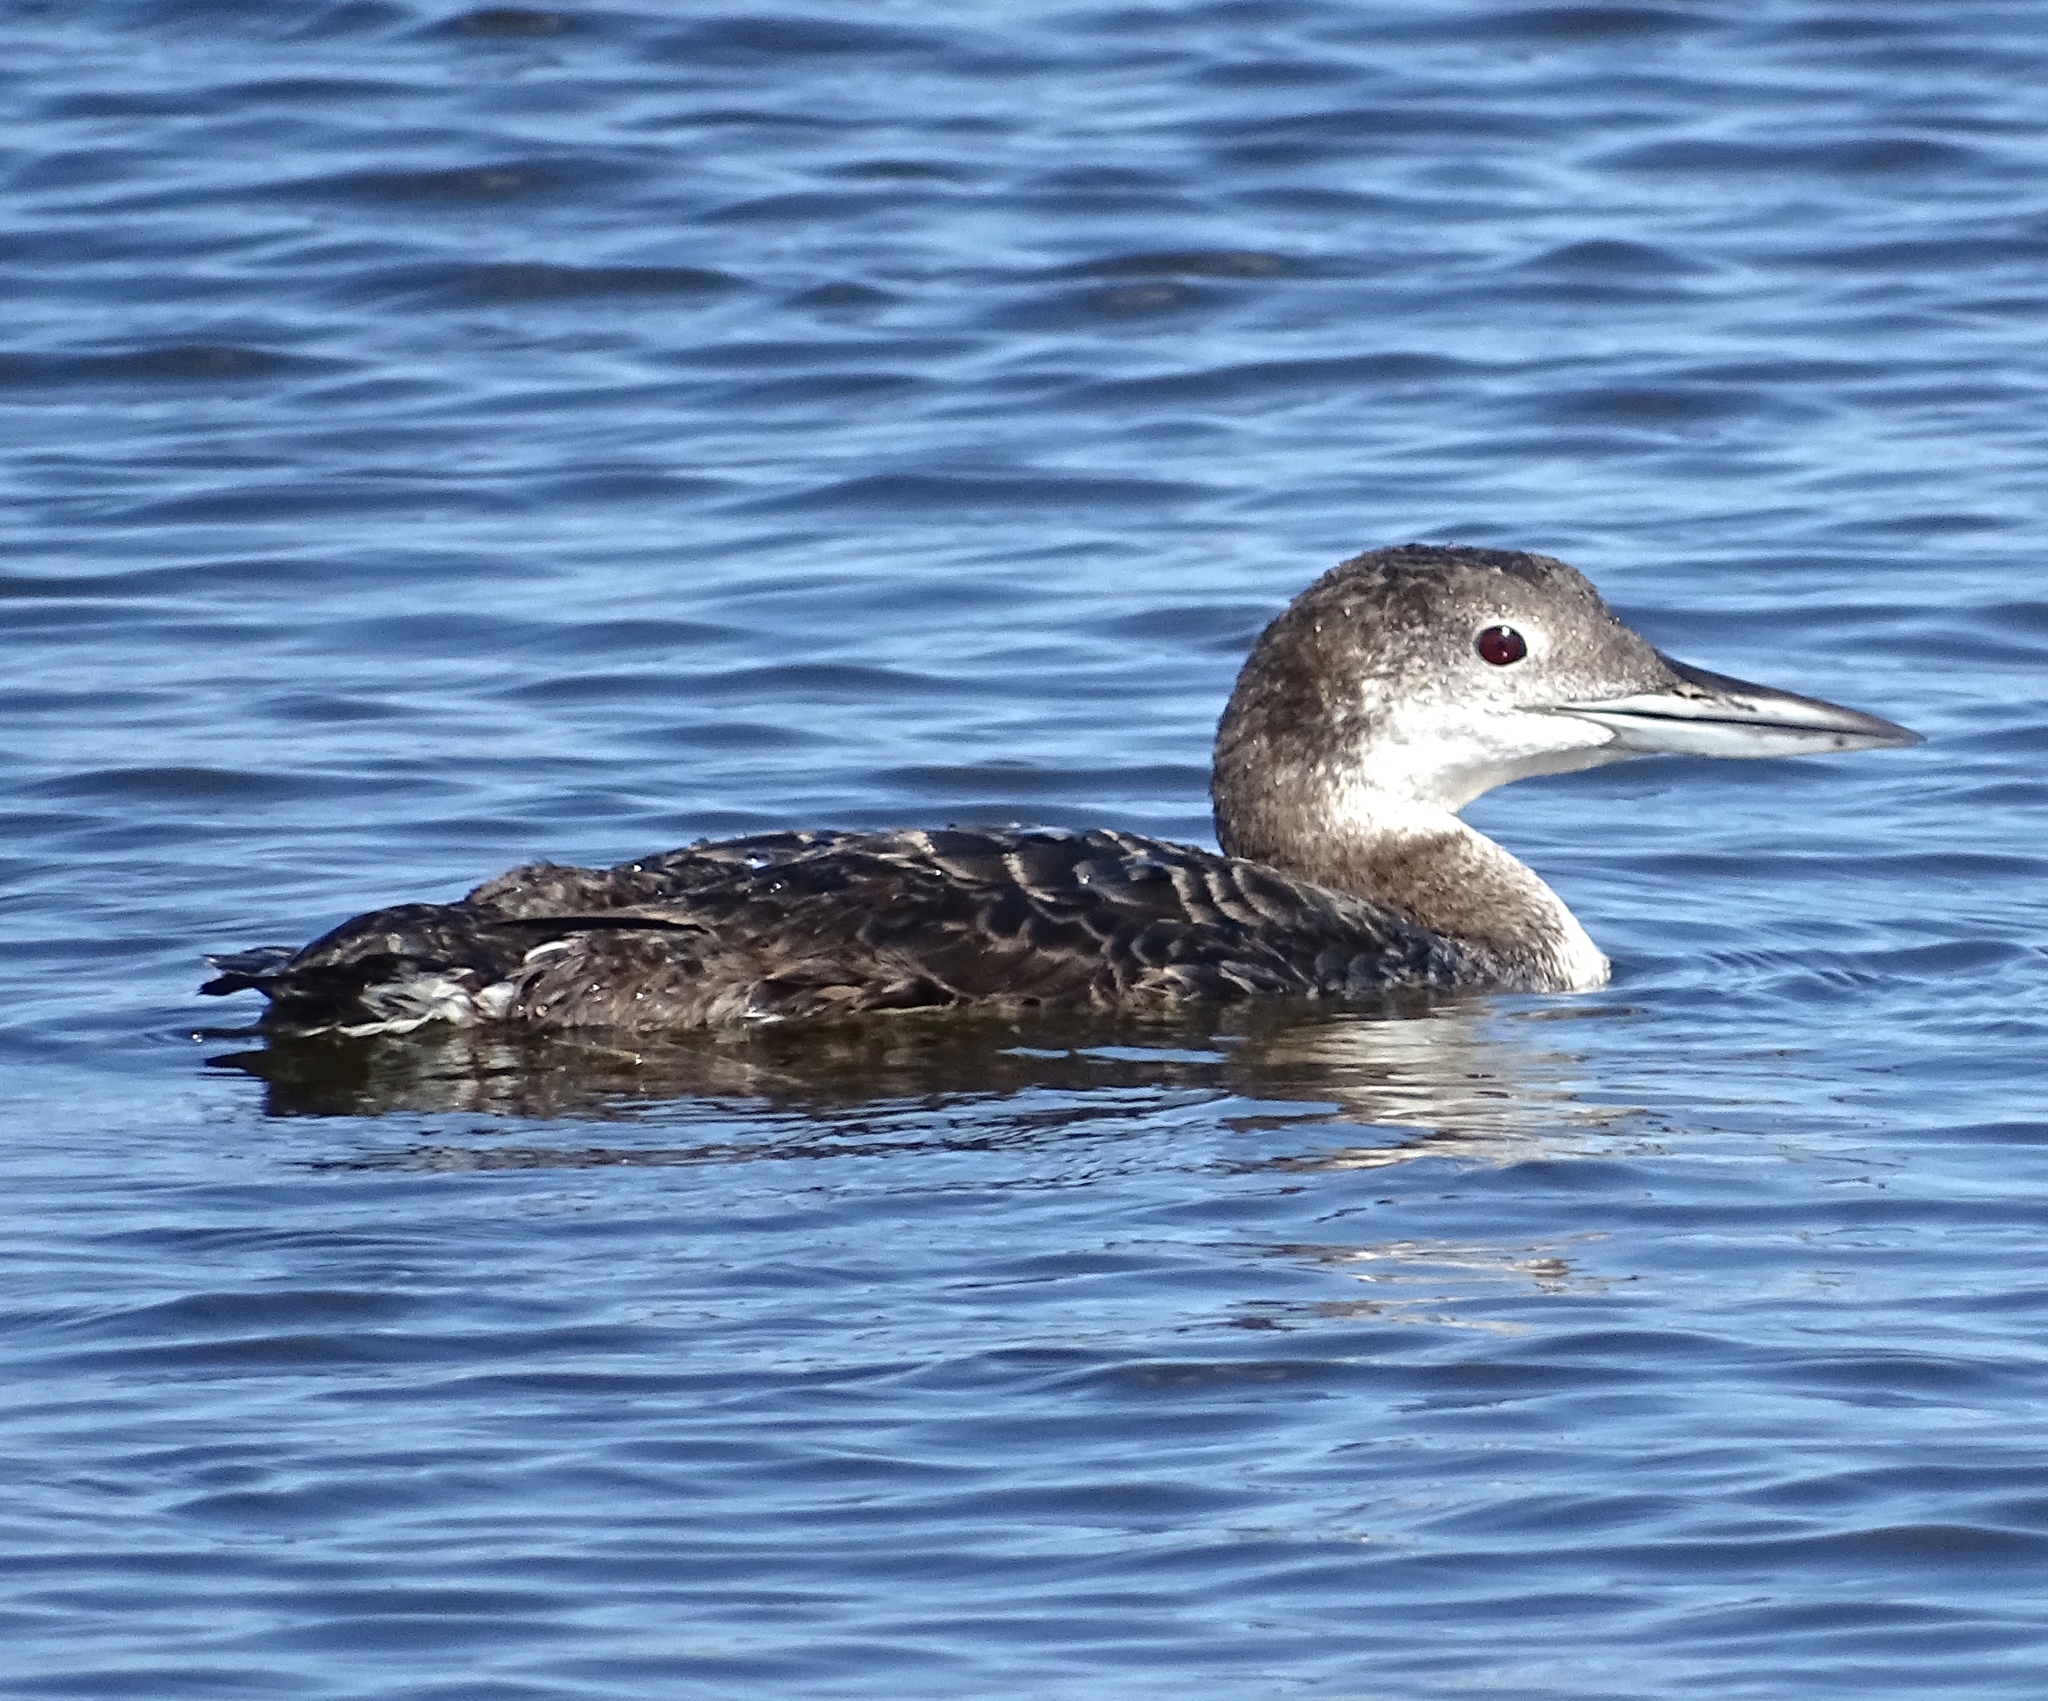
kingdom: Animalia
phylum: Chordata
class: Aves
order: Gaviiformes
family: Gaviidae
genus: Gavia
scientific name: Gavia immer
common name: Common loon
